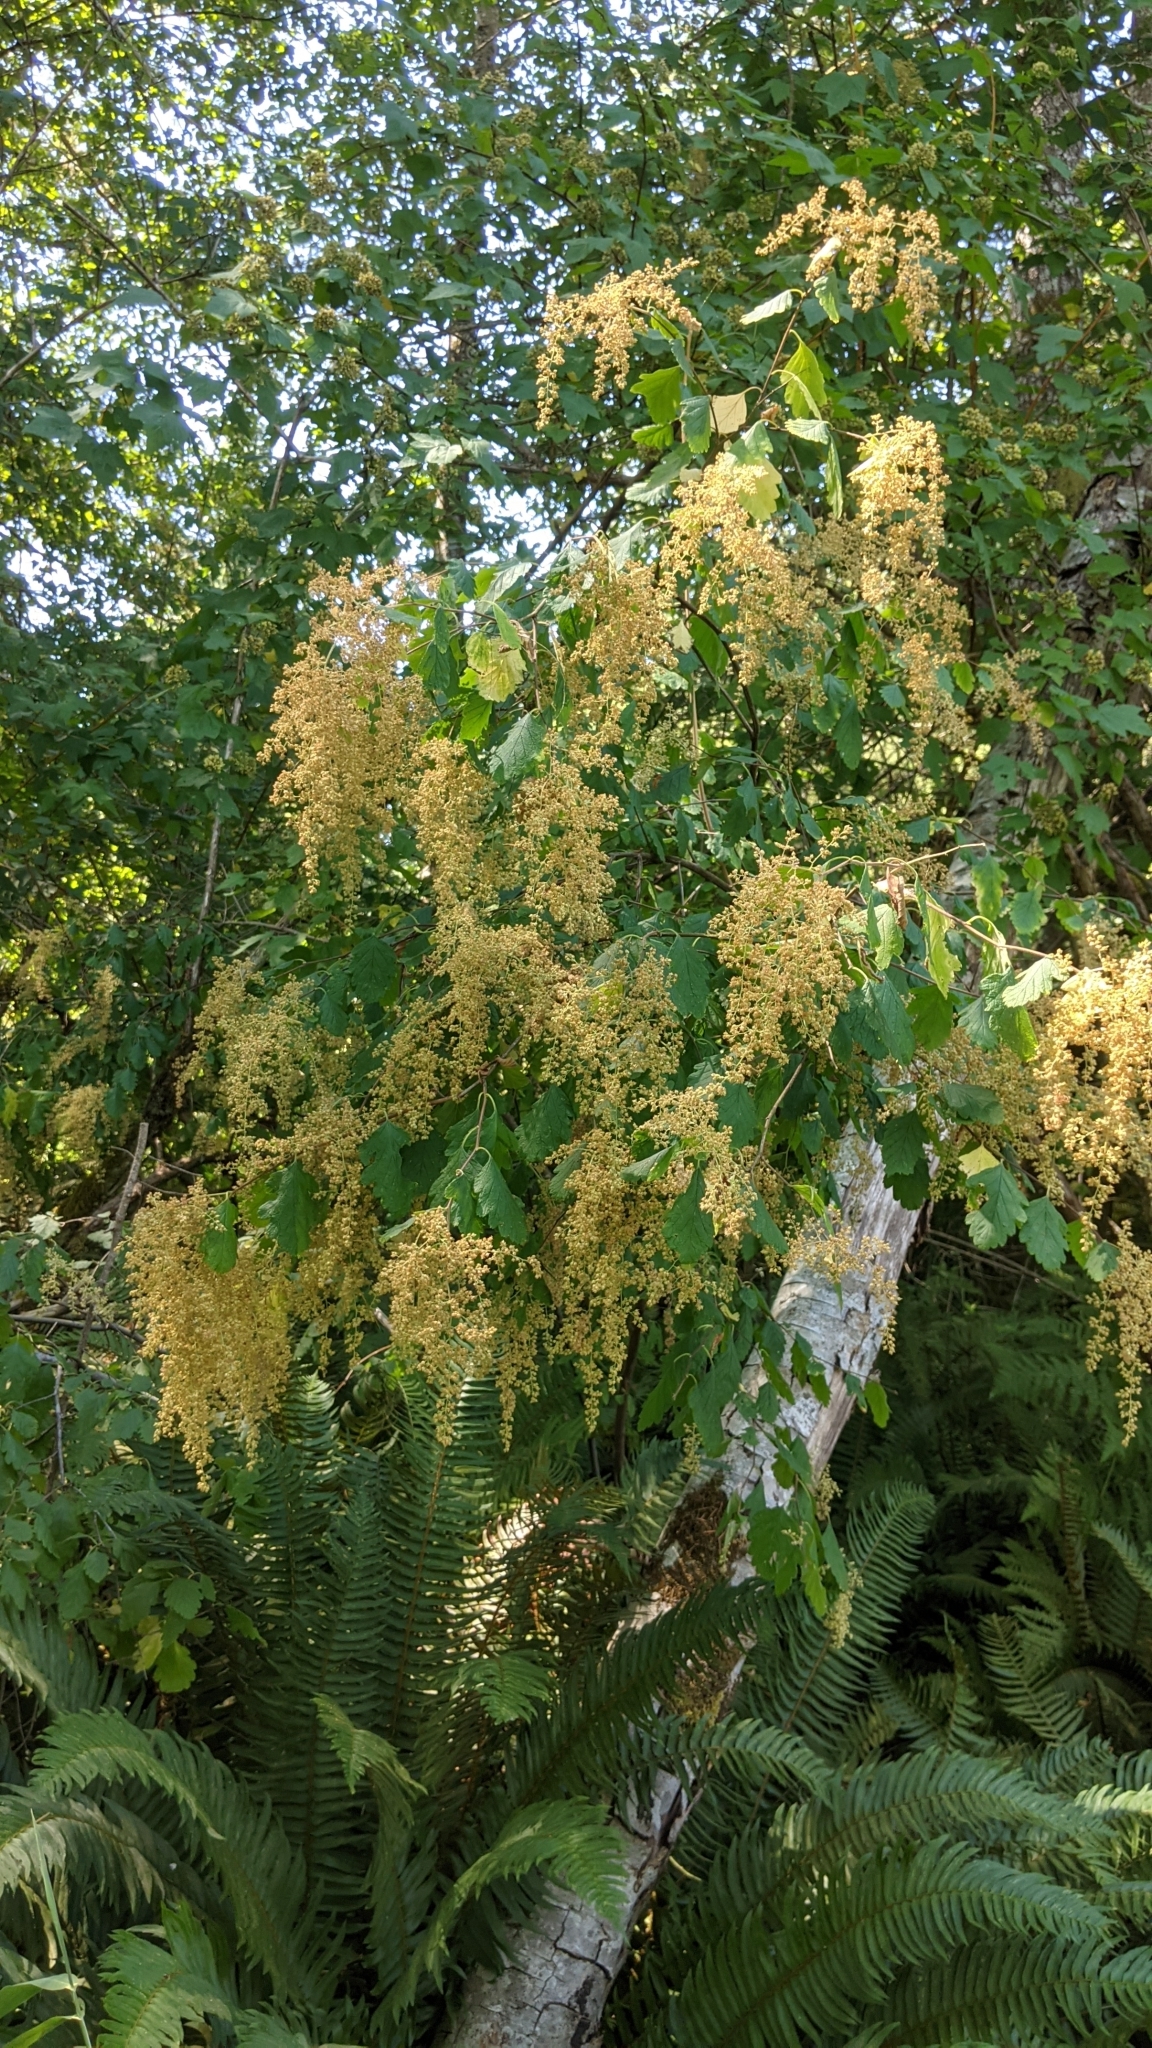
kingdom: Plantae
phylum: Tracheophyta
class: Magnoliopsida
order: Rosales
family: Rosaceae
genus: Holodiscus
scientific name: Holodiscus discolor
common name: Oceanspray
